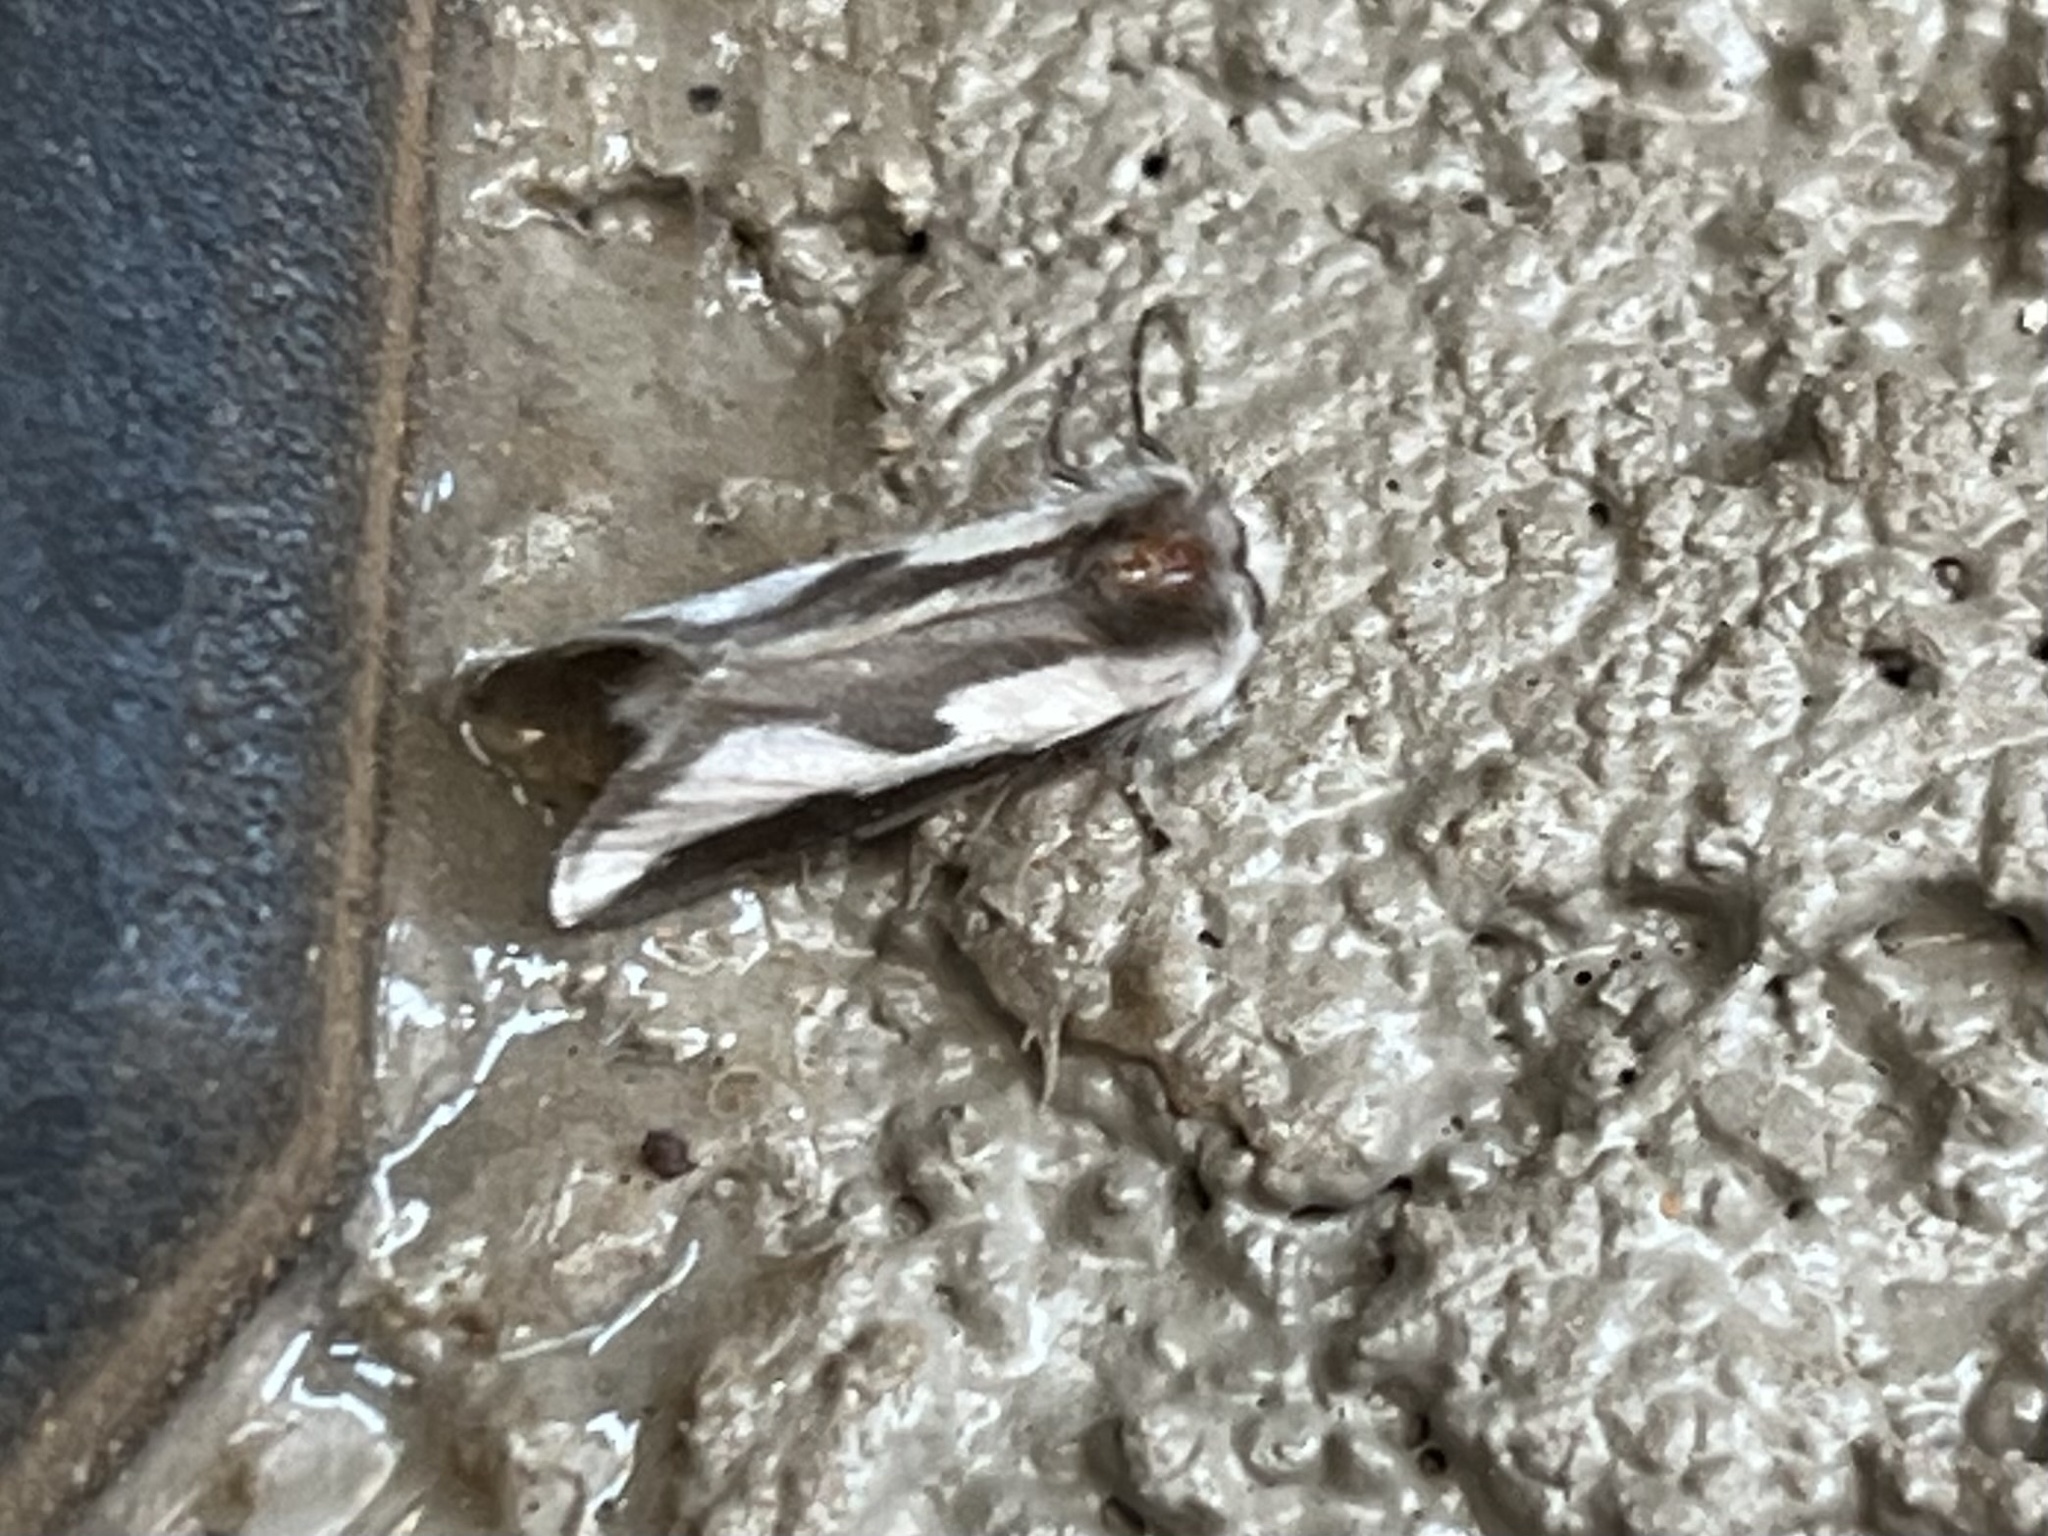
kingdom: Animalia
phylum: Arthropoda
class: Insecta
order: Lepidoptera
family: Megalopygidae
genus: Norape
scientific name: Norape tener
